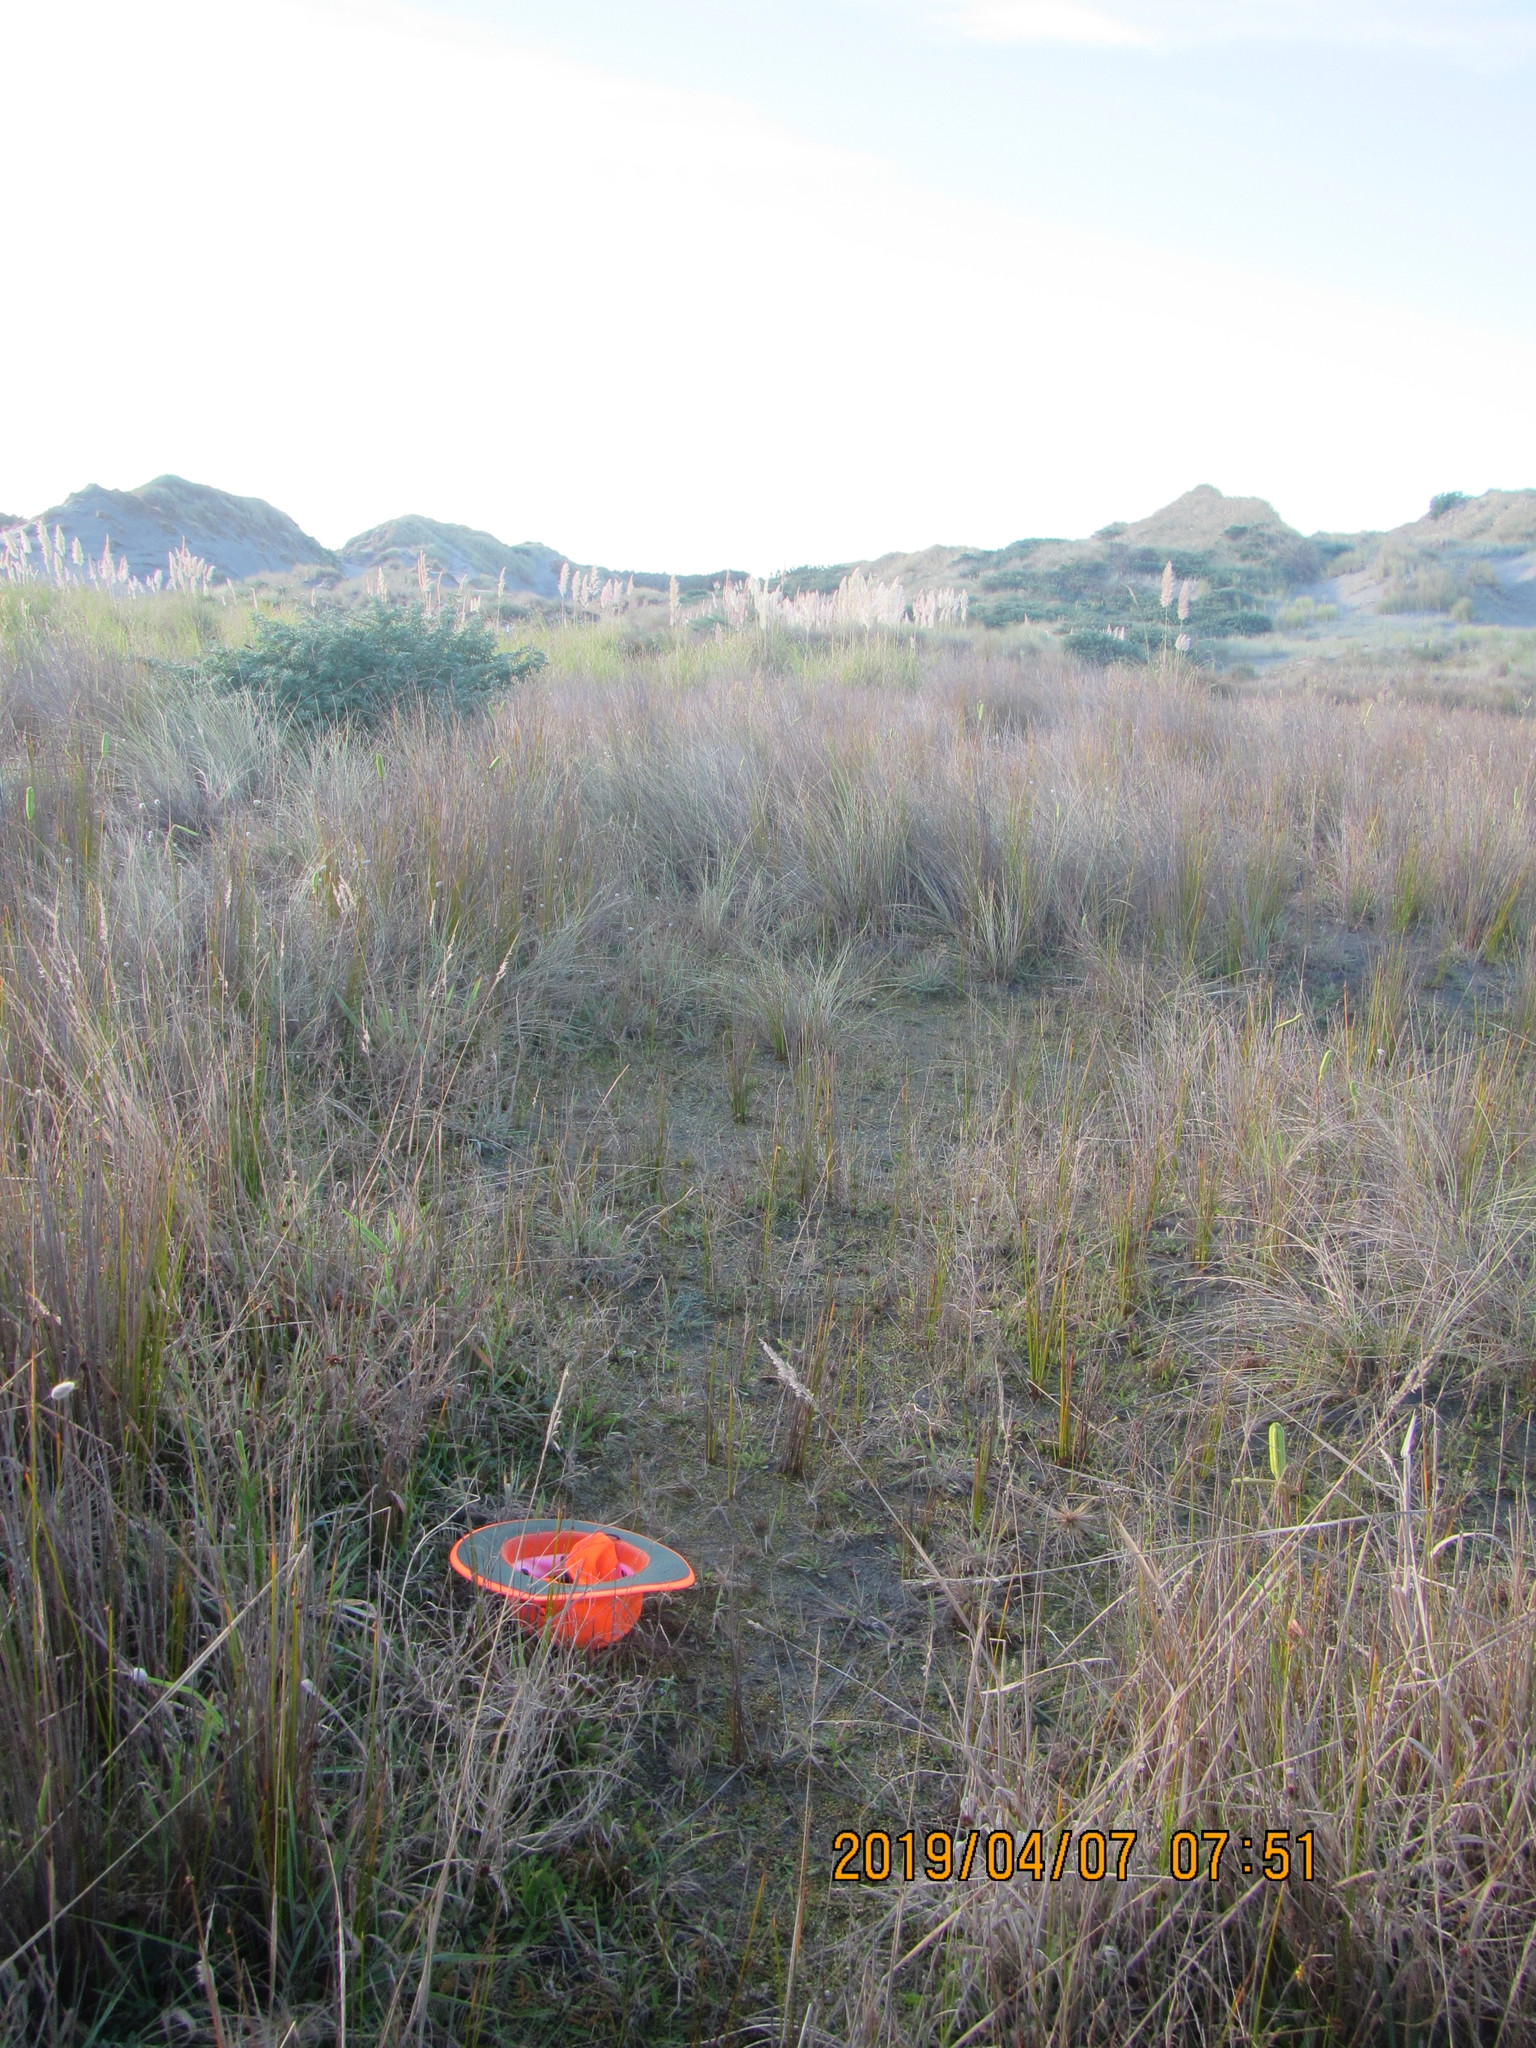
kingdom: Plantae
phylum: Tracheophyta
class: Magnoliopsida
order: Asterales
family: Goodeniaceae
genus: Goodenia
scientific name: Goodenia heenanii
